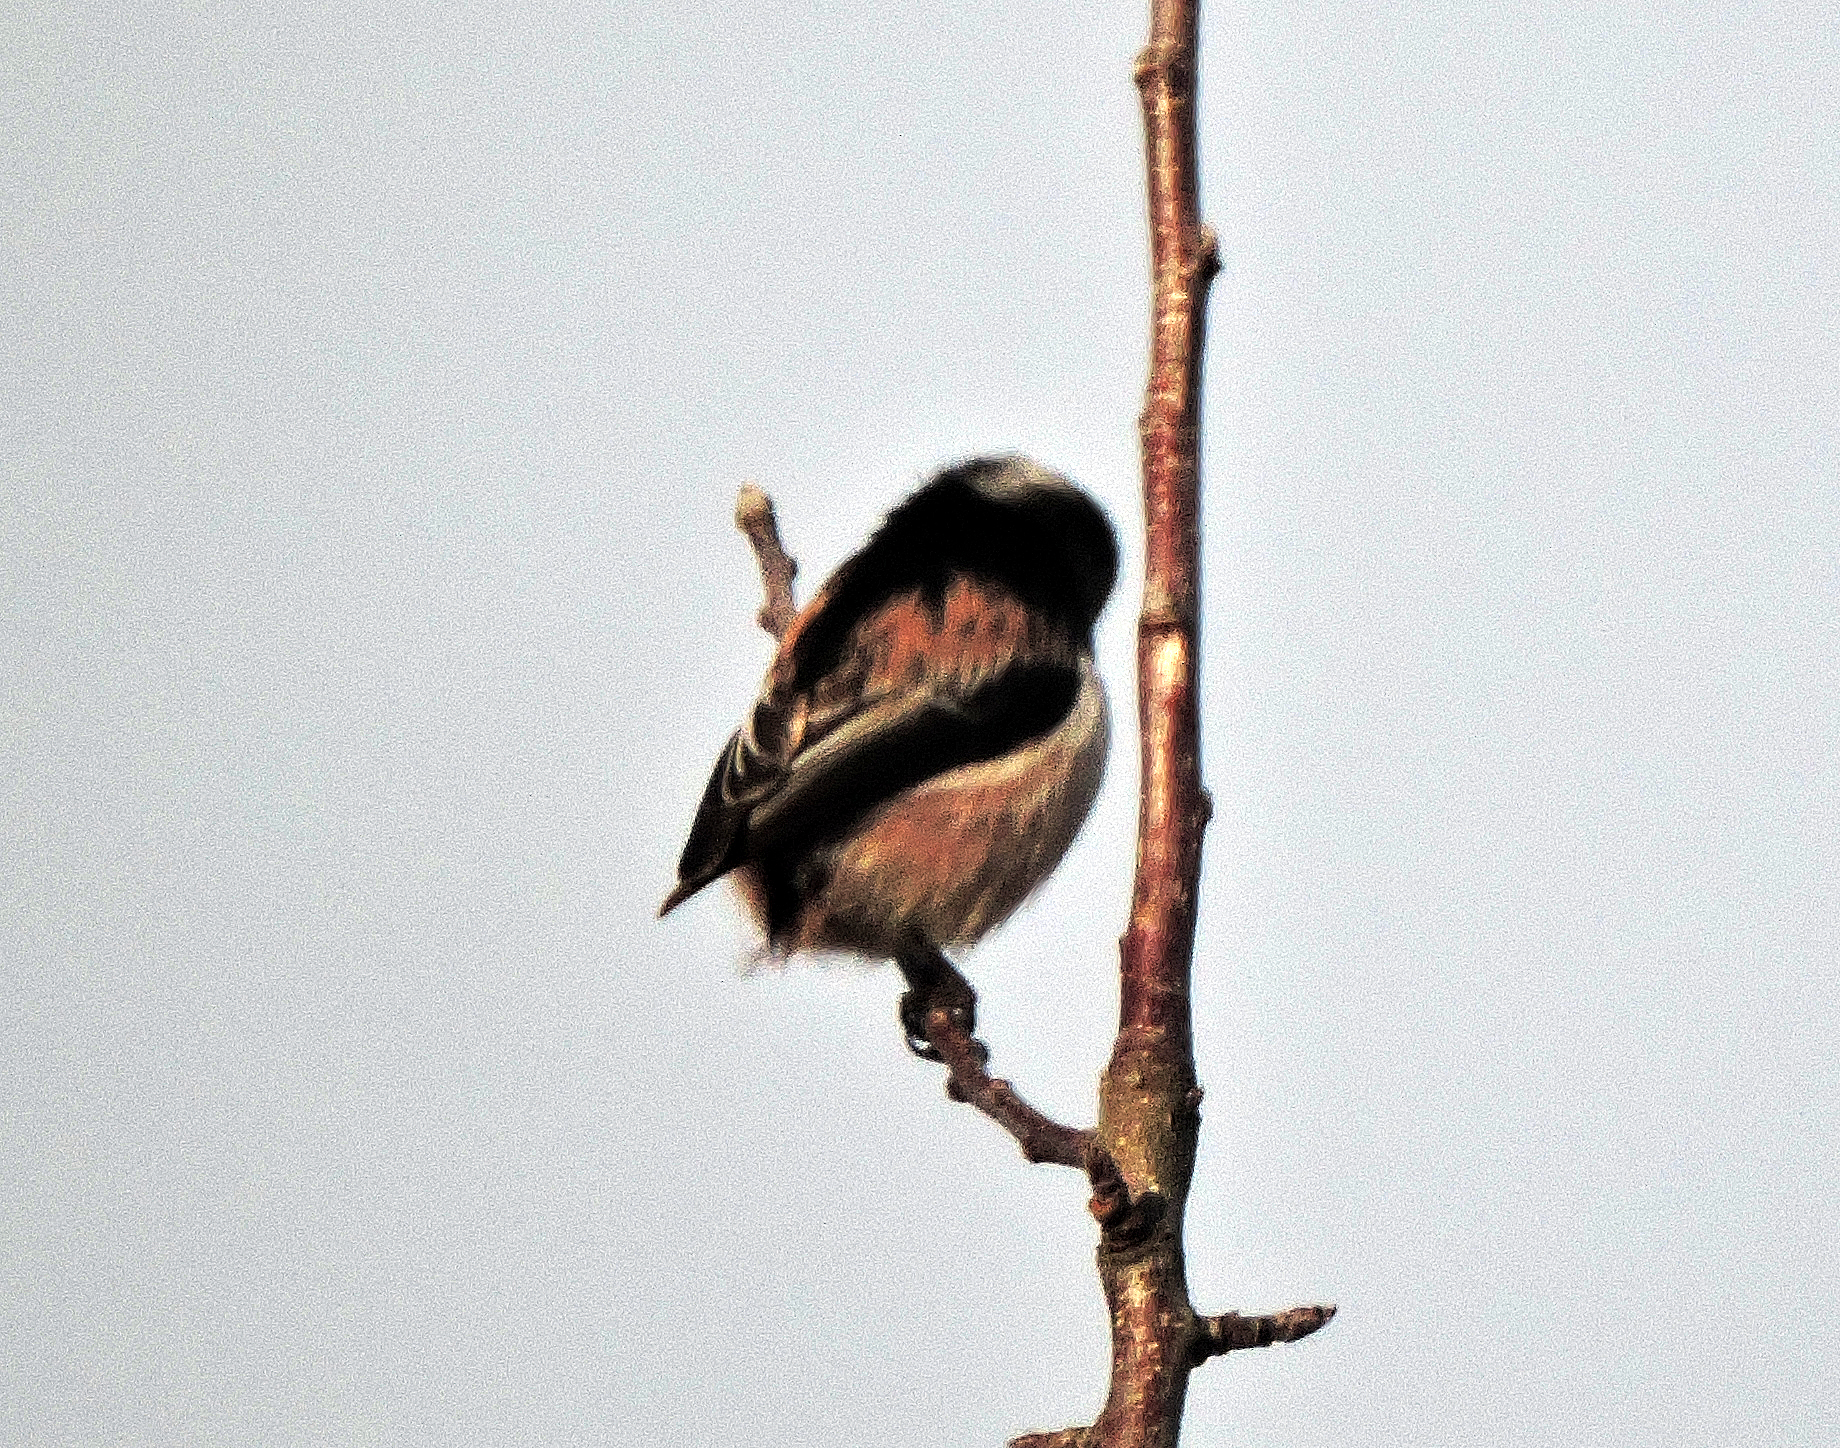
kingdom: Animalia
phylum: Chordata
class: Aves
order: Passeriformes
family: Aegithalidae
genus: Aegithalos
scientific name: Aegithalos caudatus
